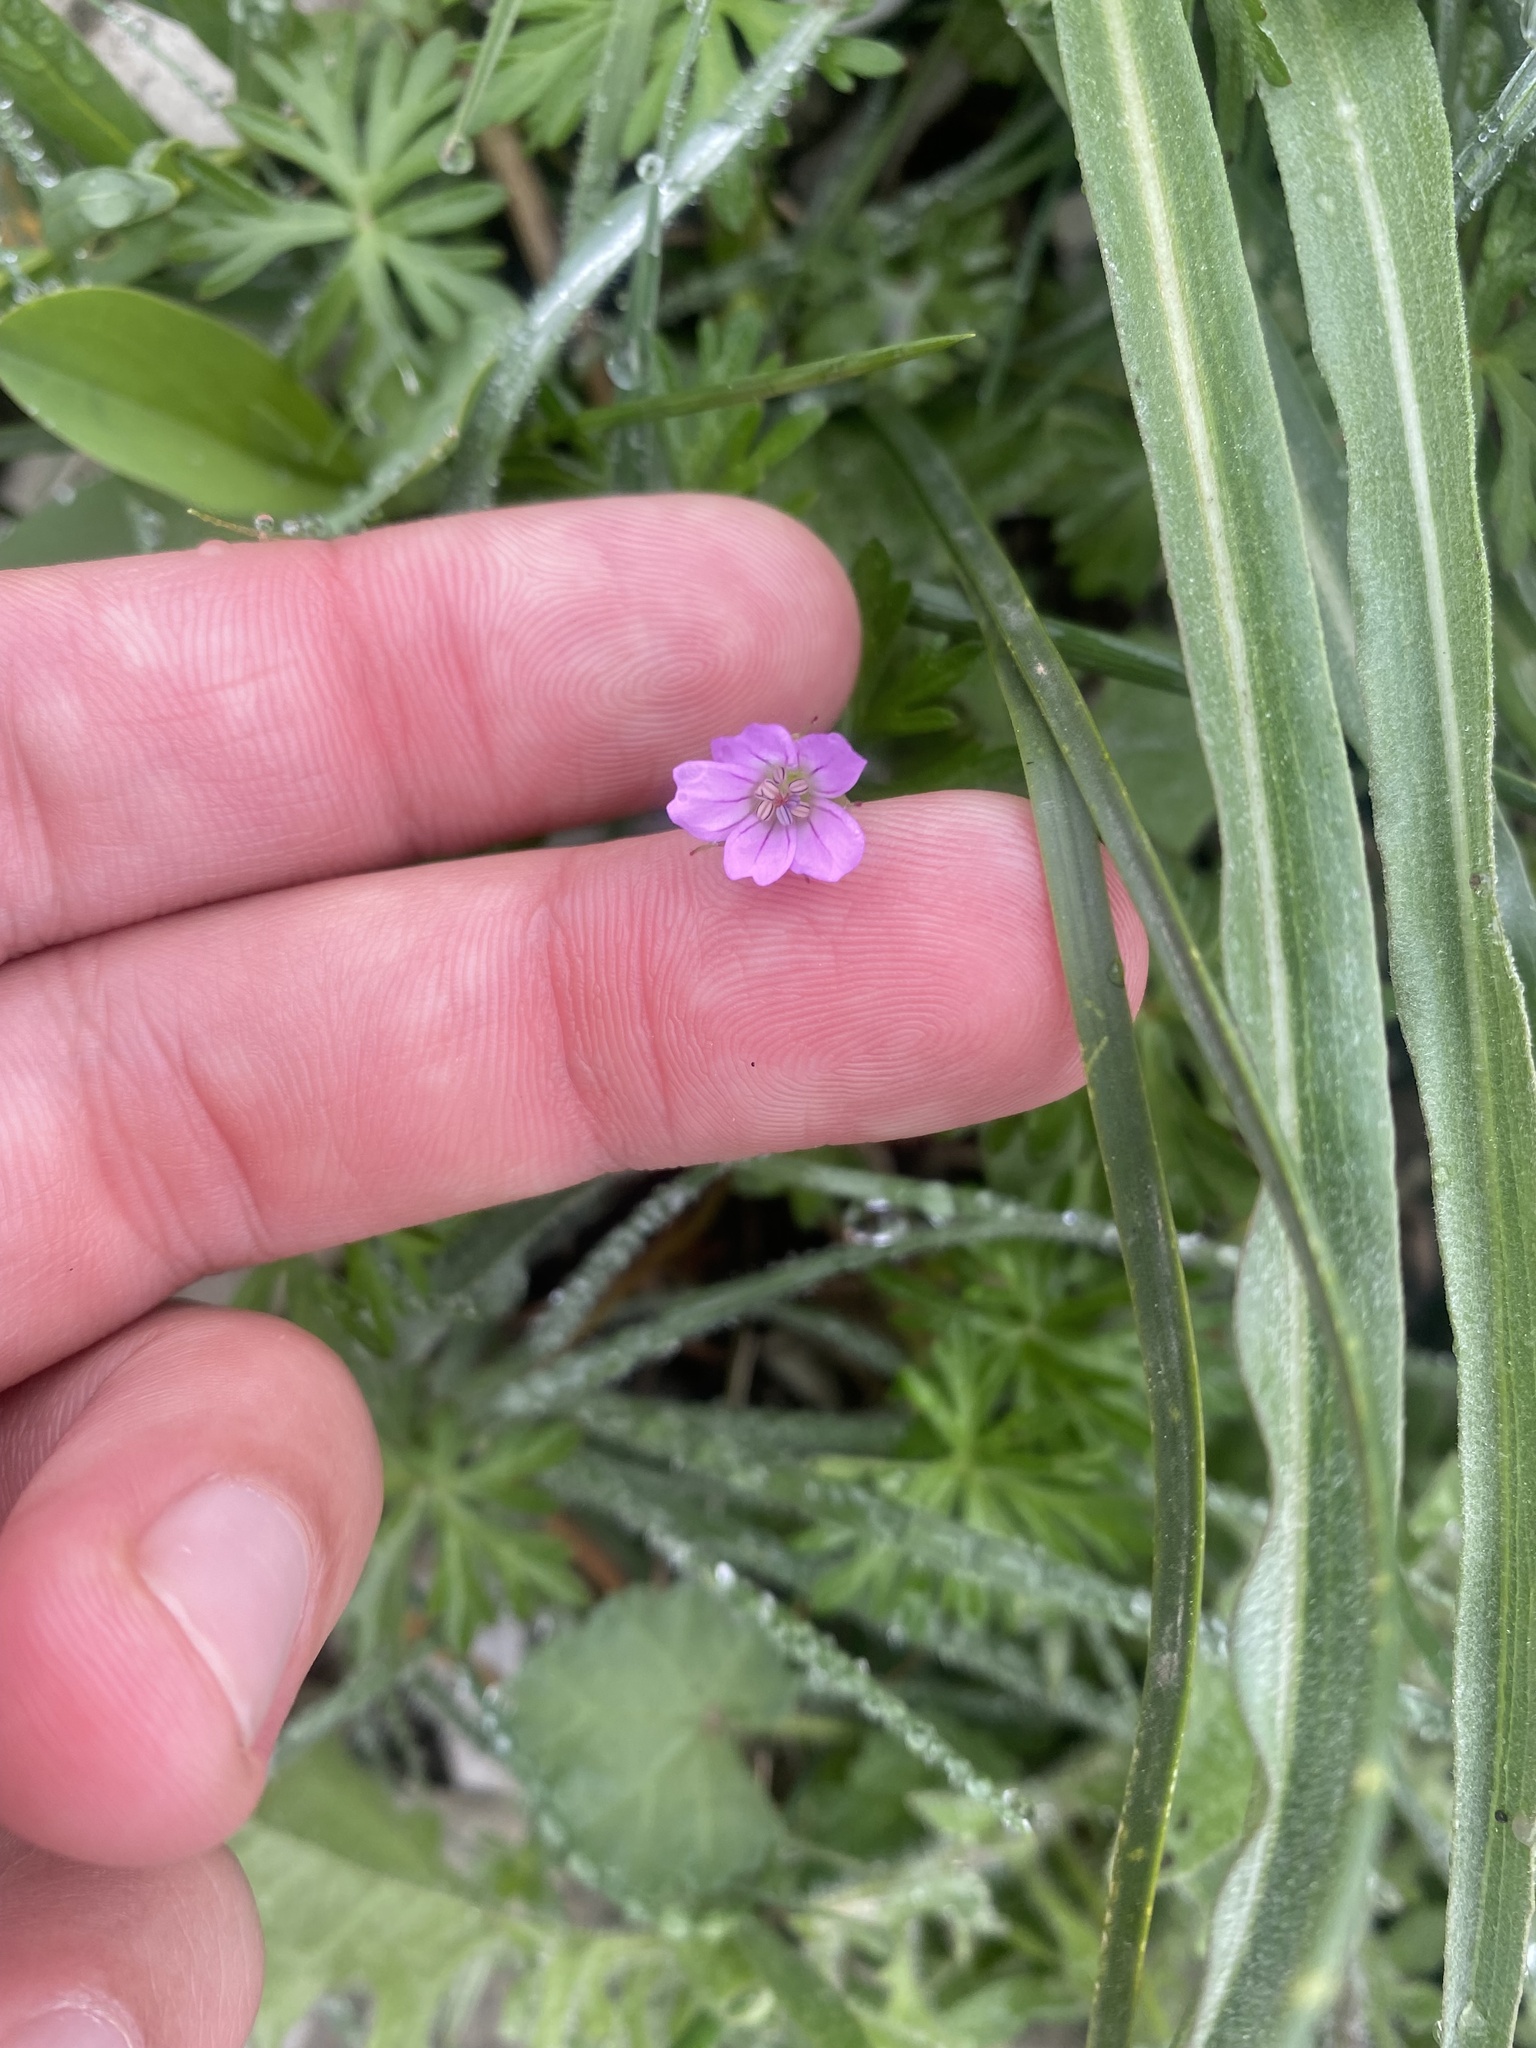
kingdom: Plantae
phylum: Tracheophyta
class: Magnoliopsida
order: Geraniales
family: Geraniaceae
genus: Geranium
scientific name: Geranium columbinum
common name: Long-stalked crane's-bill
